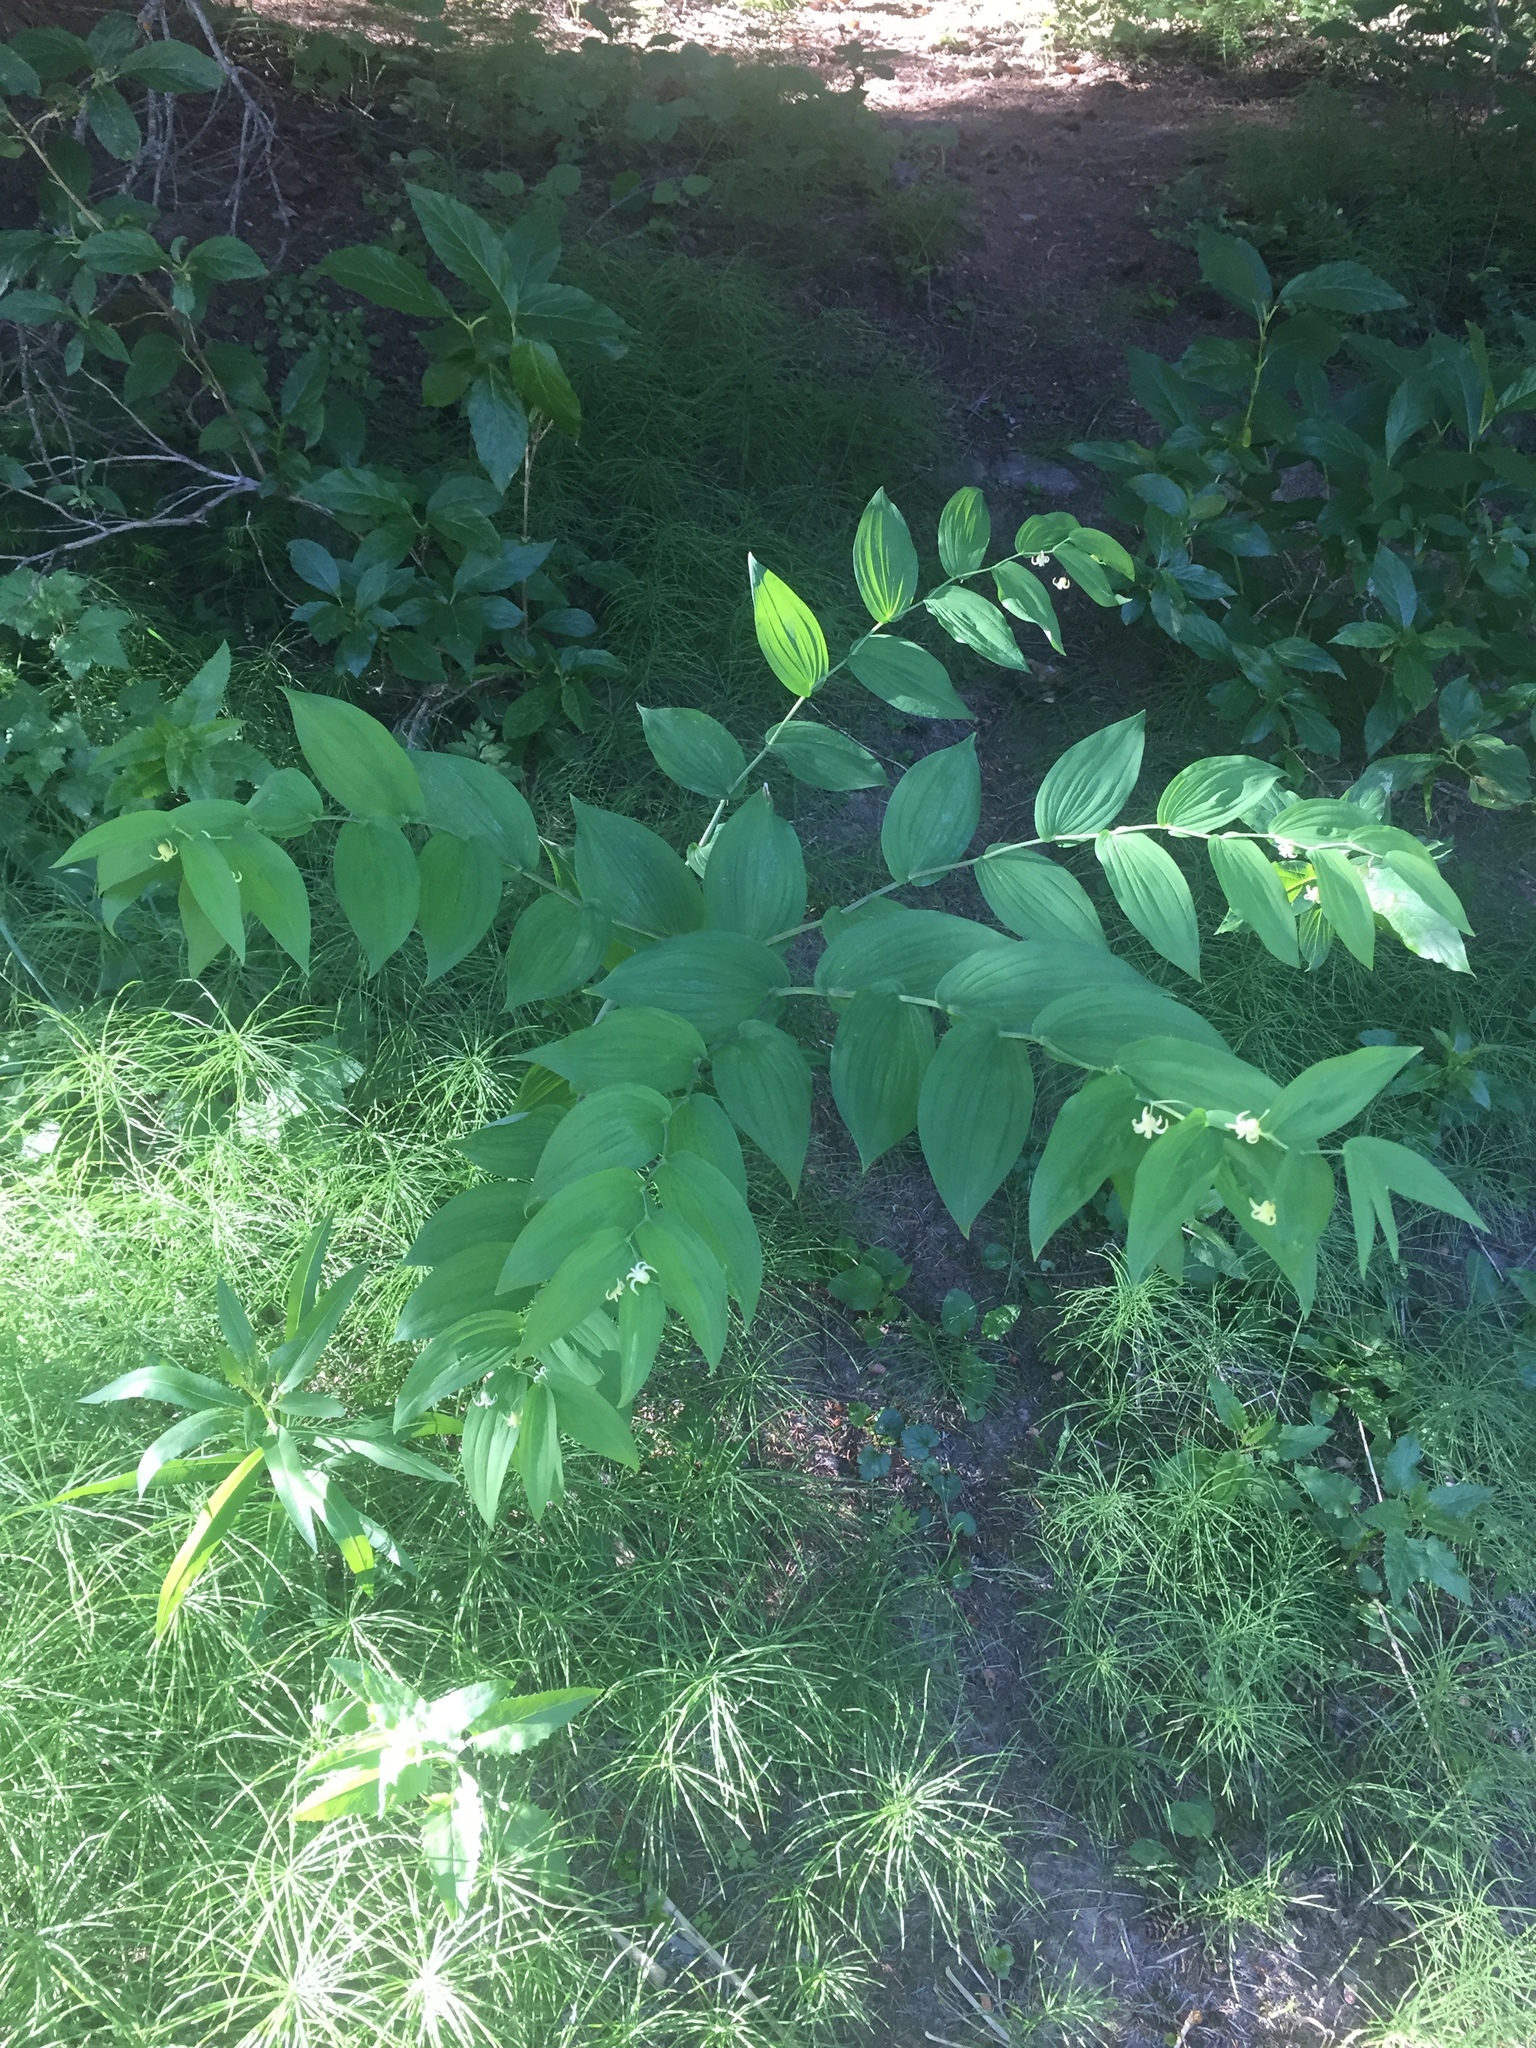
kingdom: Plantae
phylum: Tracheophyta
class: Liliopsida
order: Liliales
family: Liliaceae
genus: Streptopus
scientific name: Streptopus amplexifolius
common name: Clasp twisted stalk
